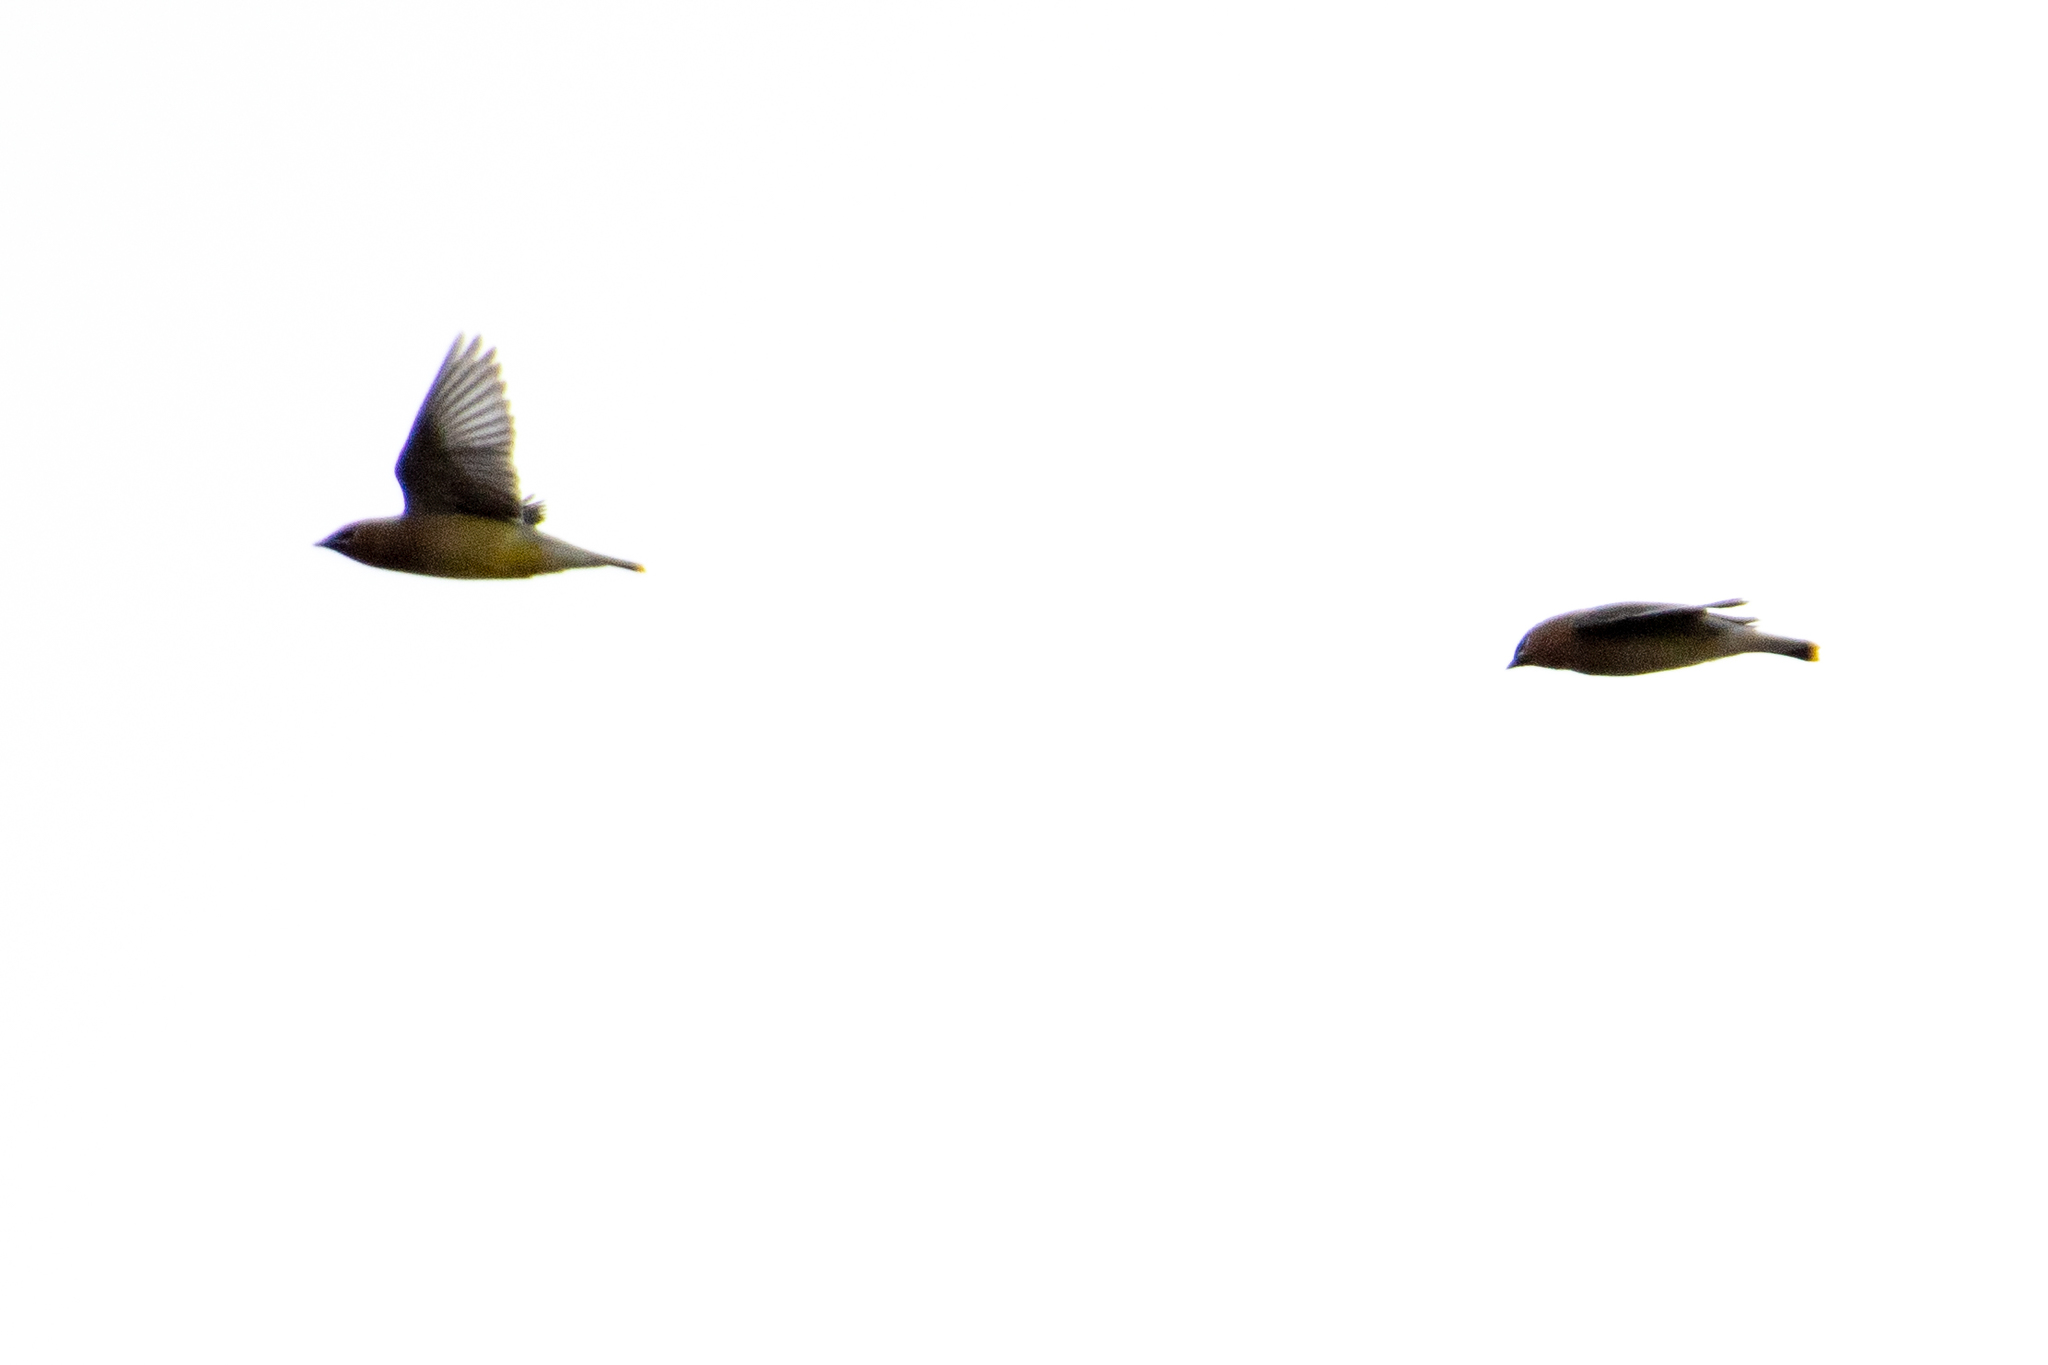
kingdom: Animalia
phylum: Chordata
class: Aves
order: Passeriformes
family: Bombycillidae
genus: Bombycilla
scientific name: Bombycilla cedrorum
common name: Cedar waxwing
